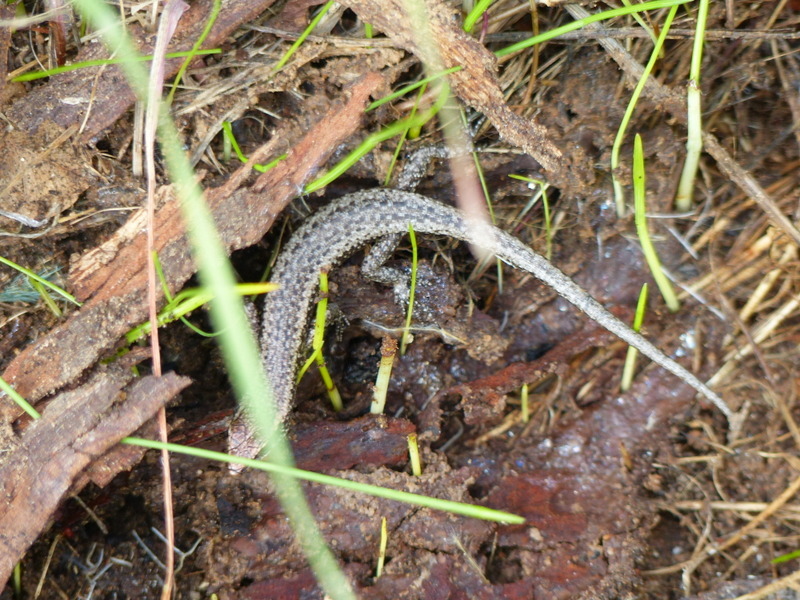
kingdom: Animalia
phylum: Chordata
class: Squamata
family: Scincidae
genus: Cryptoblepharus
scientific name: Cryptoblepharus buchananii
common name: Buchanan's snake-eyed skink
